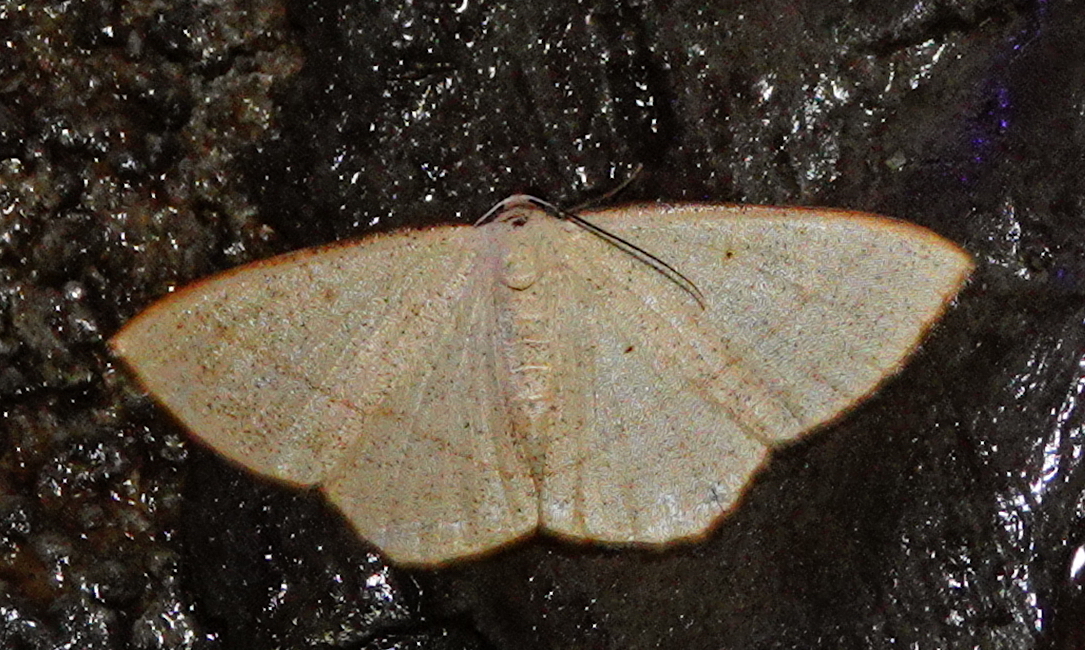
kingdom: Animalia
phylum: Arthropoda
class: Insecta
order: Lepidoptera
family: Geometridae
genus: Lomographa
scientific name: Lomographa inamata
